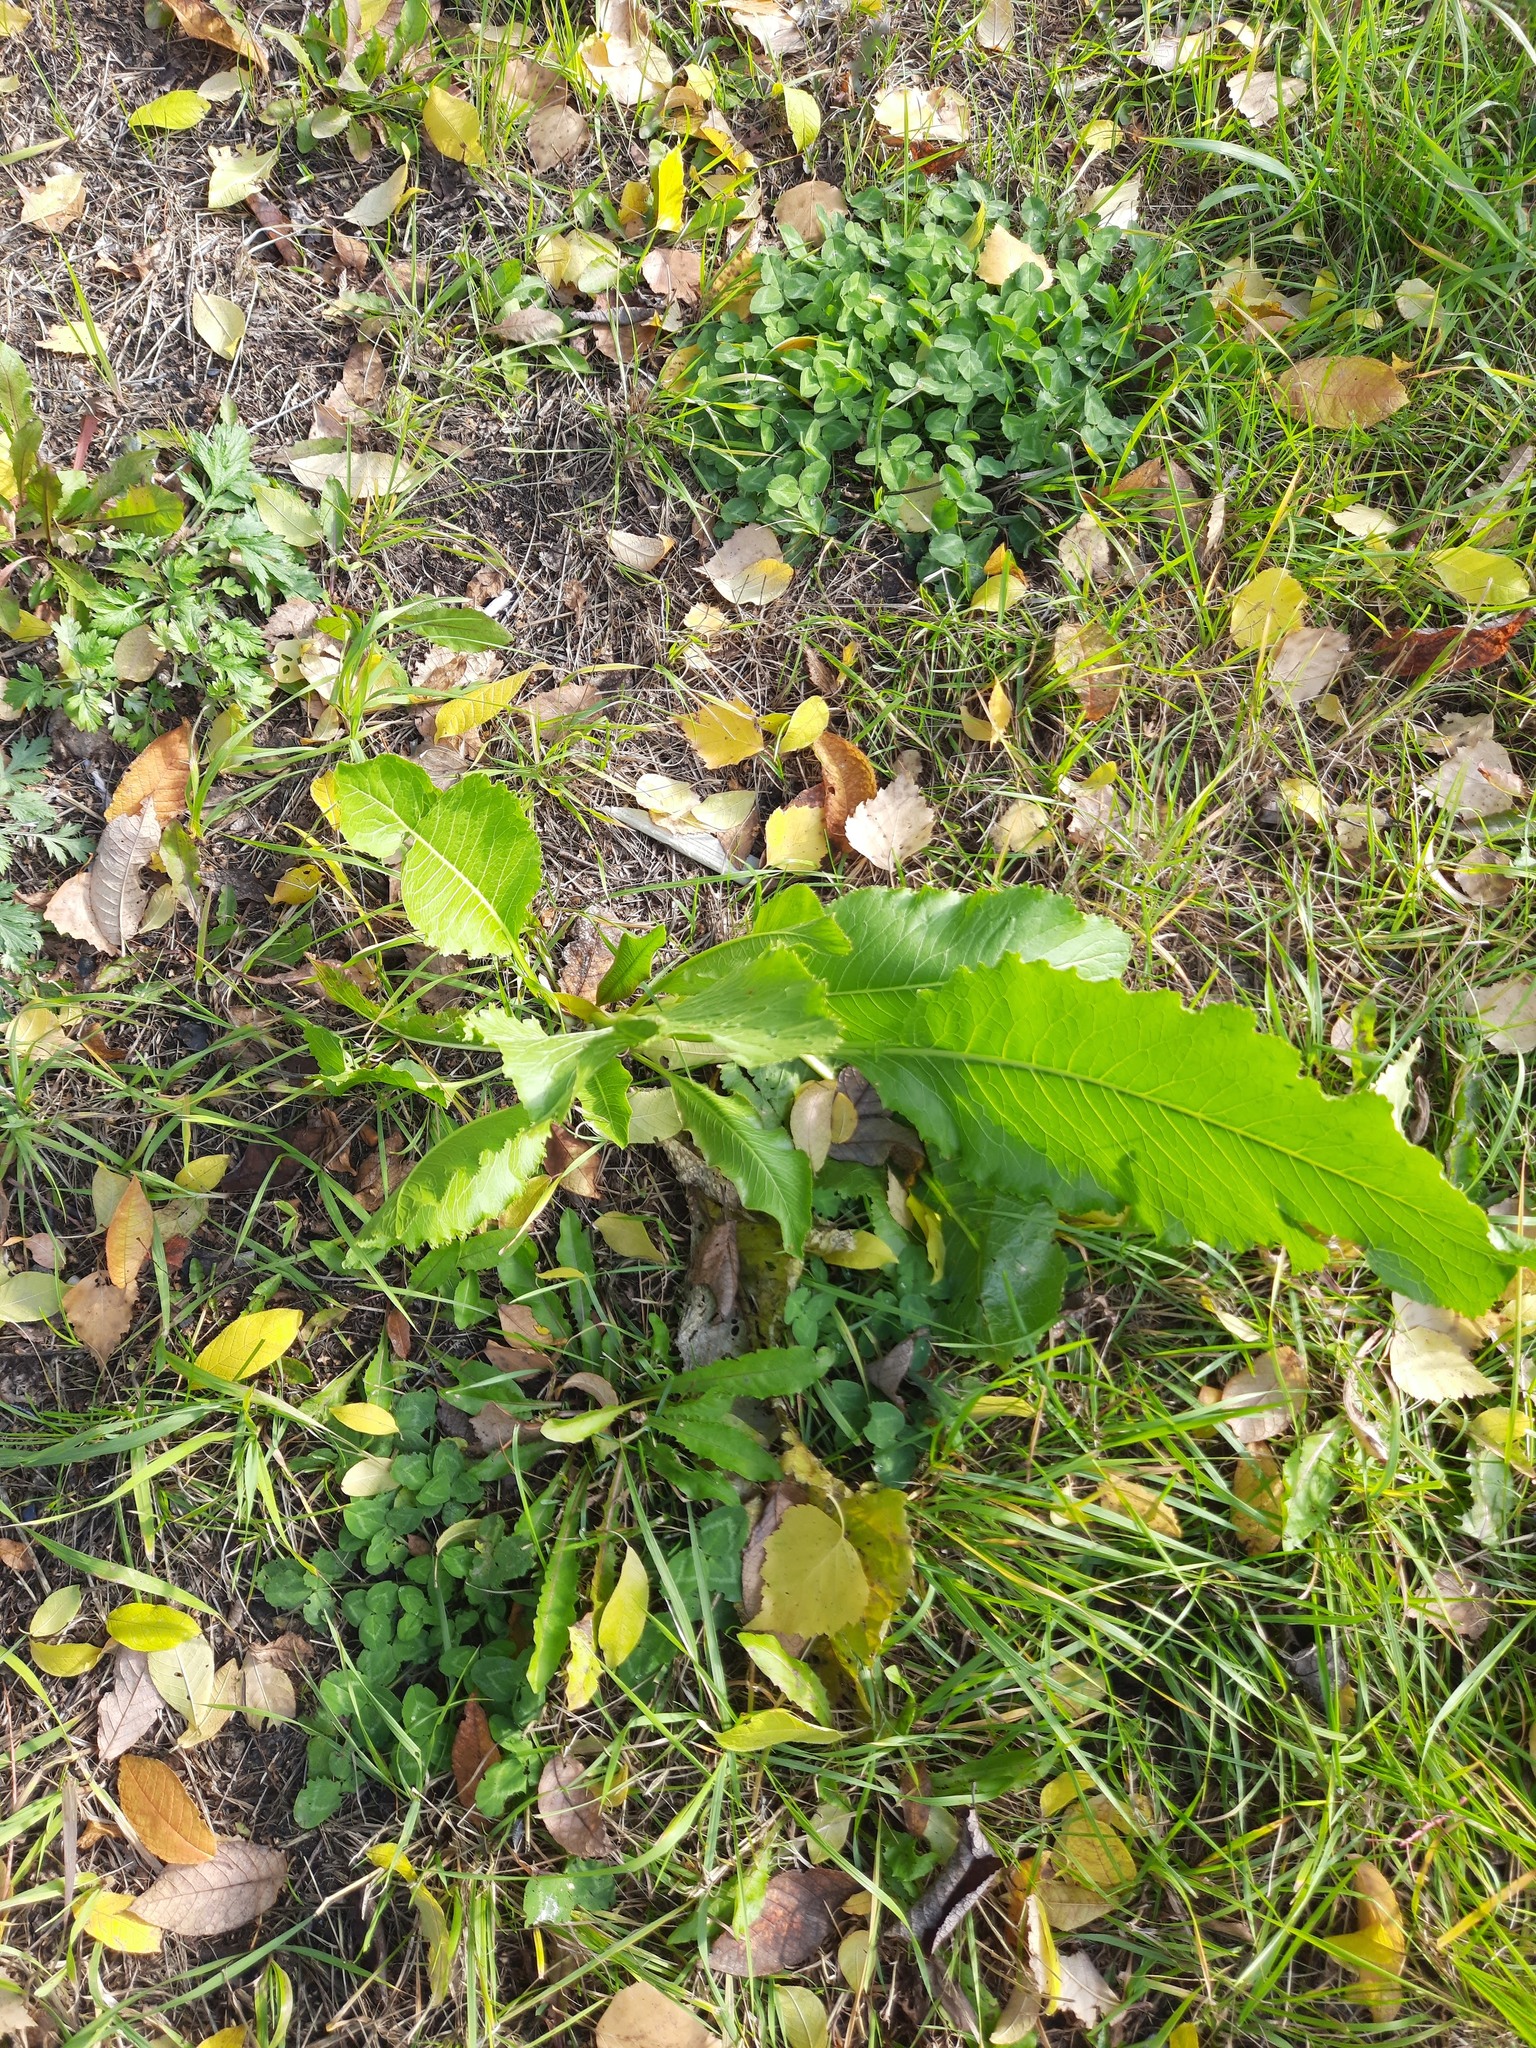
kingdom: Plantae
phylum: Tracheophyta
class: Magnoliopsida
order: Brassicales
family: Brassicaceae
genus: Armoracia
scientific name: Armoracia rusticana
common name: Horseradish
